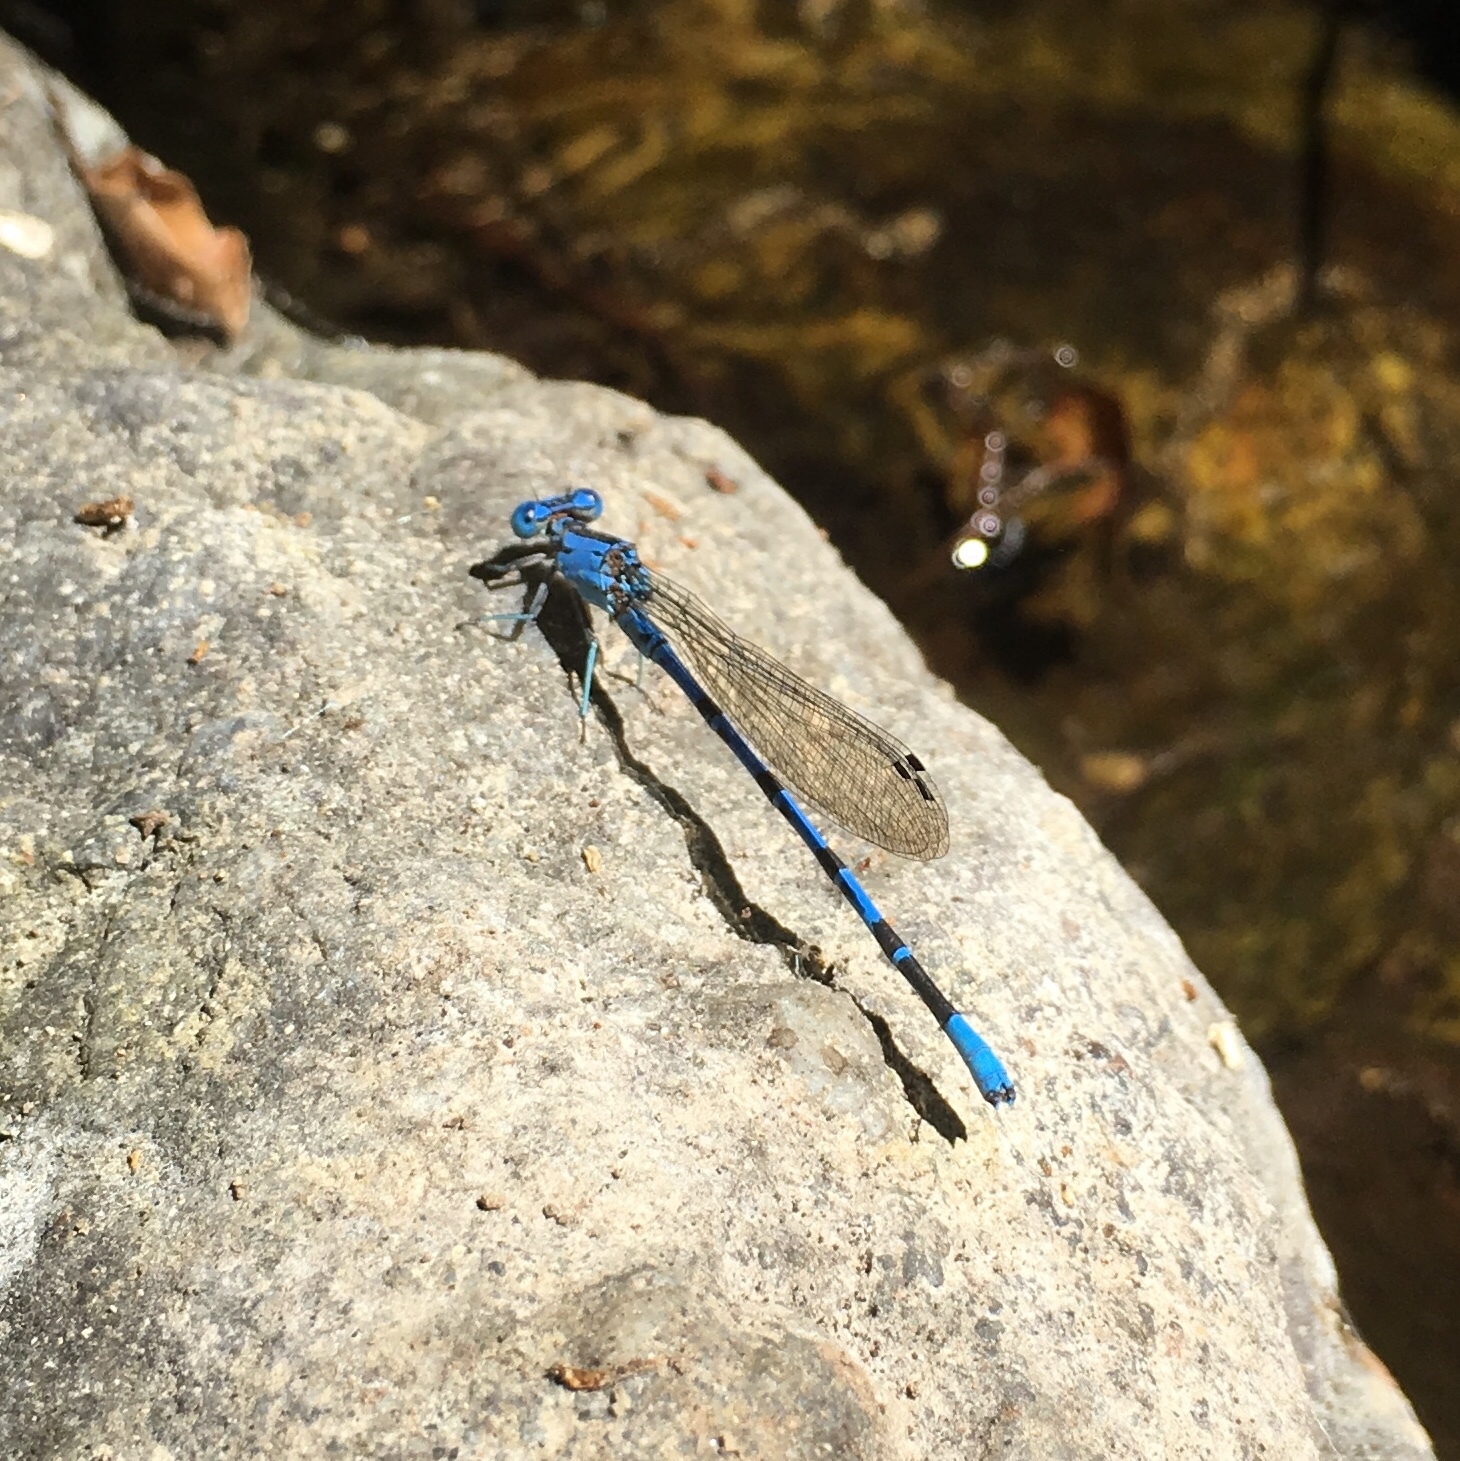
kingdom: Animalia
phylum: Arthropoda
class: Insecta
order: Odonata
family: Coenagrionidae
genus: Argia
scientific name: Argia vivida
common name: Vivid dancer
